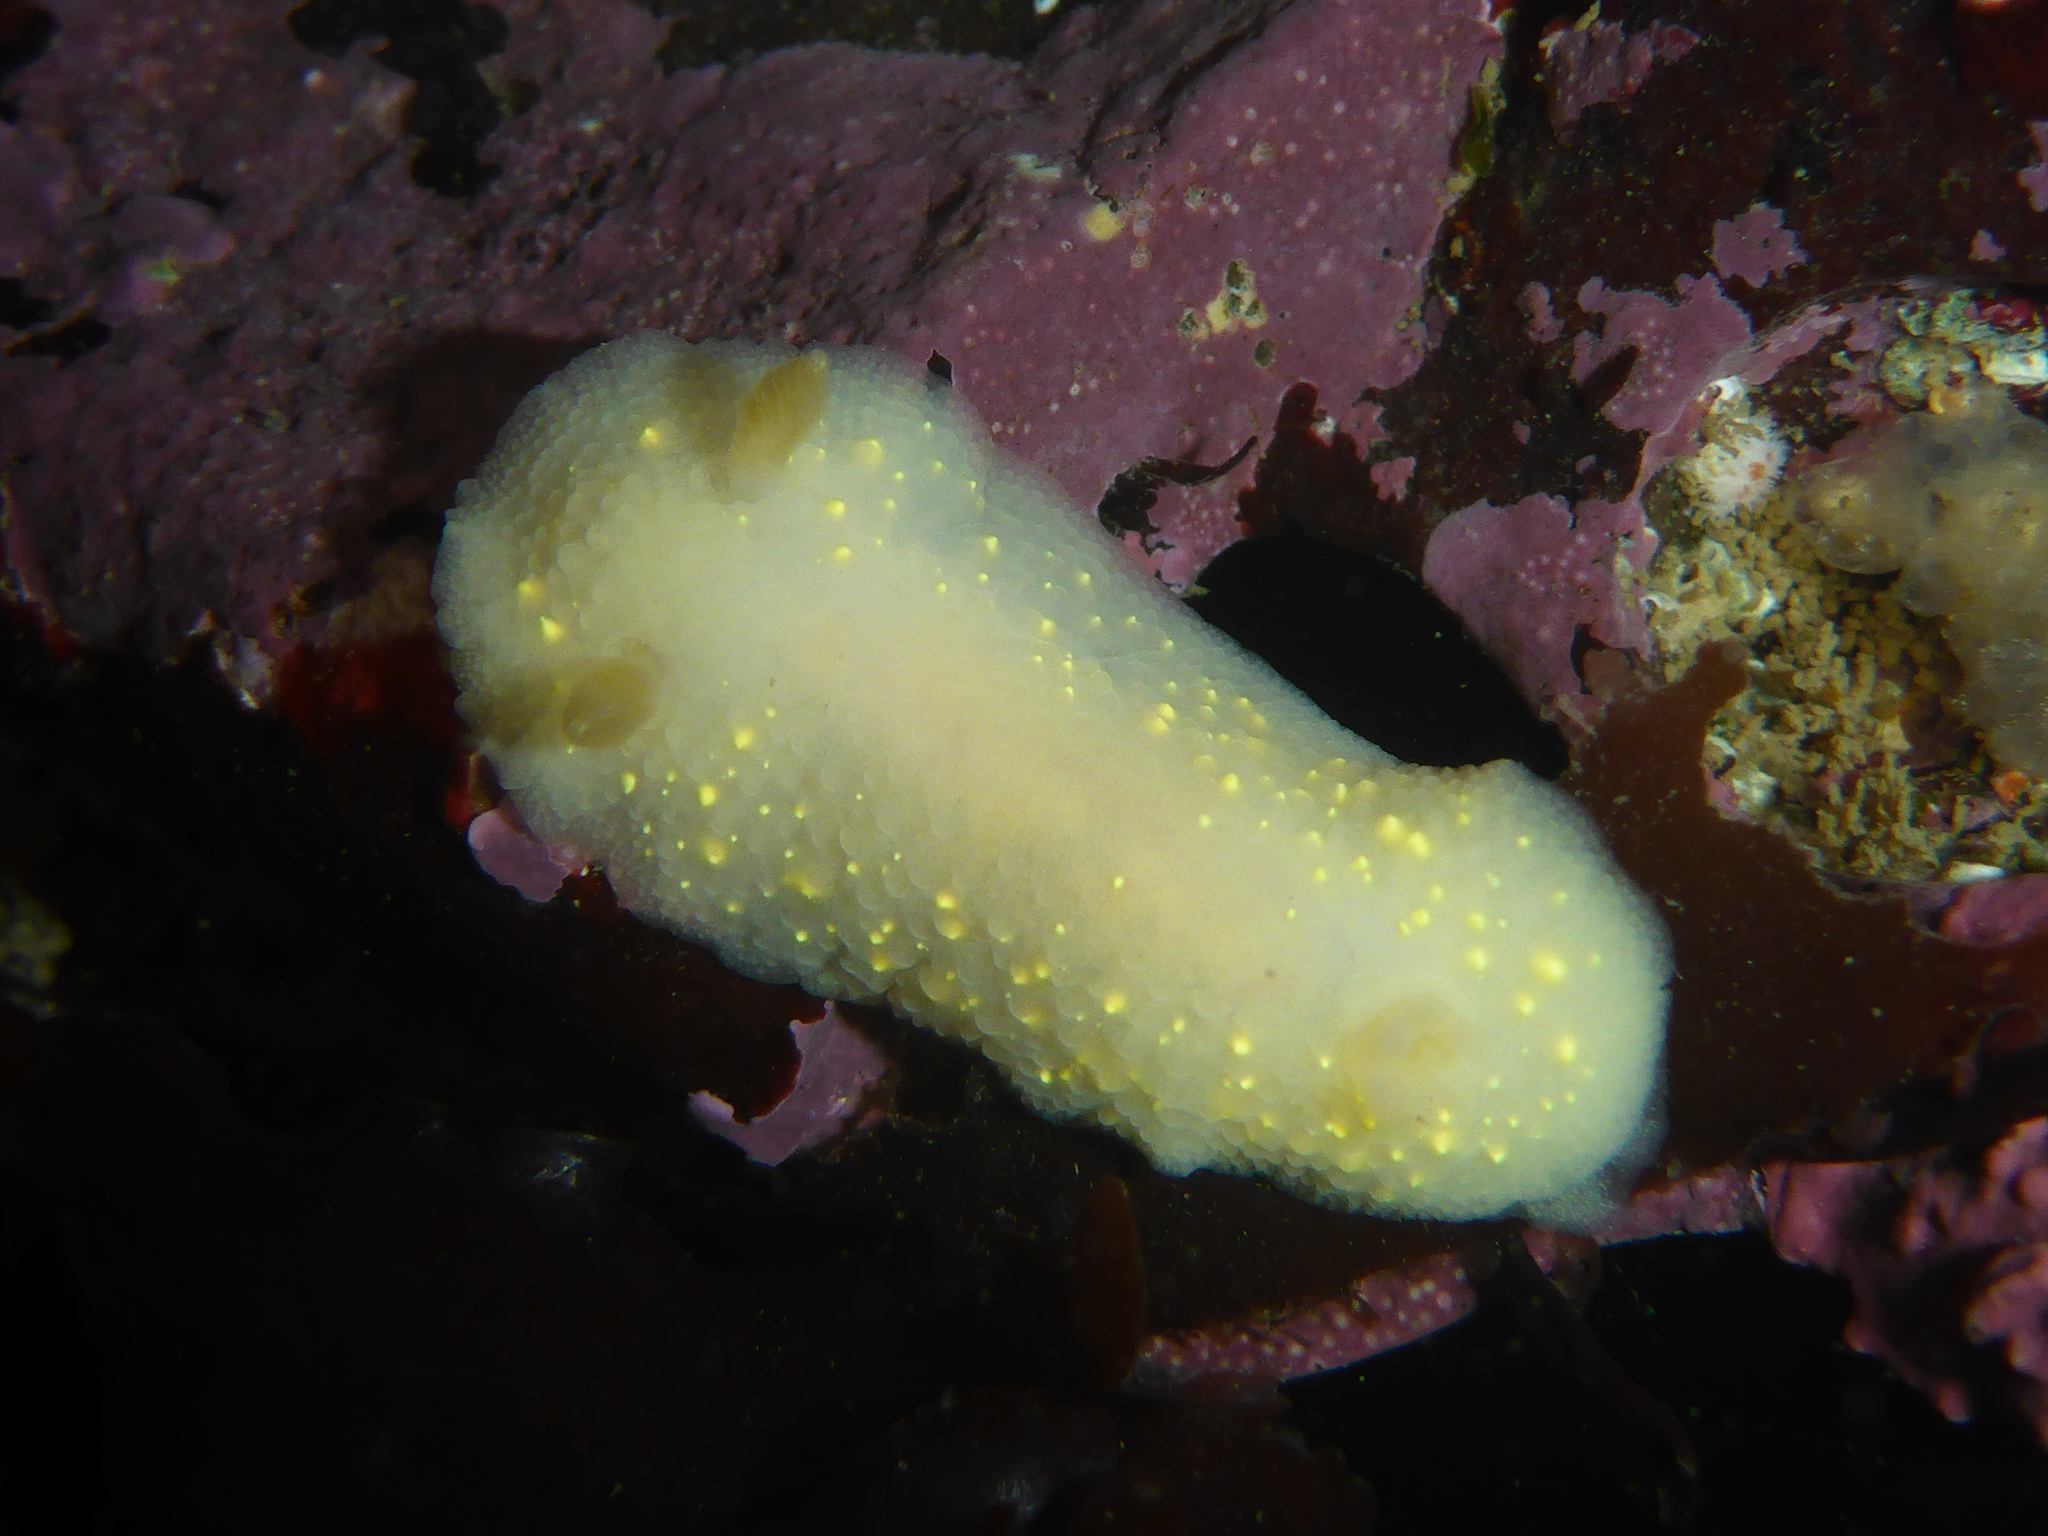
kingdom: Animalia
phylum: Mollusca
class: Gastropoda
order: Nudibranchia
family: Cadlinidae
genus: Cadlina
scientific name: Cadlina modesta
